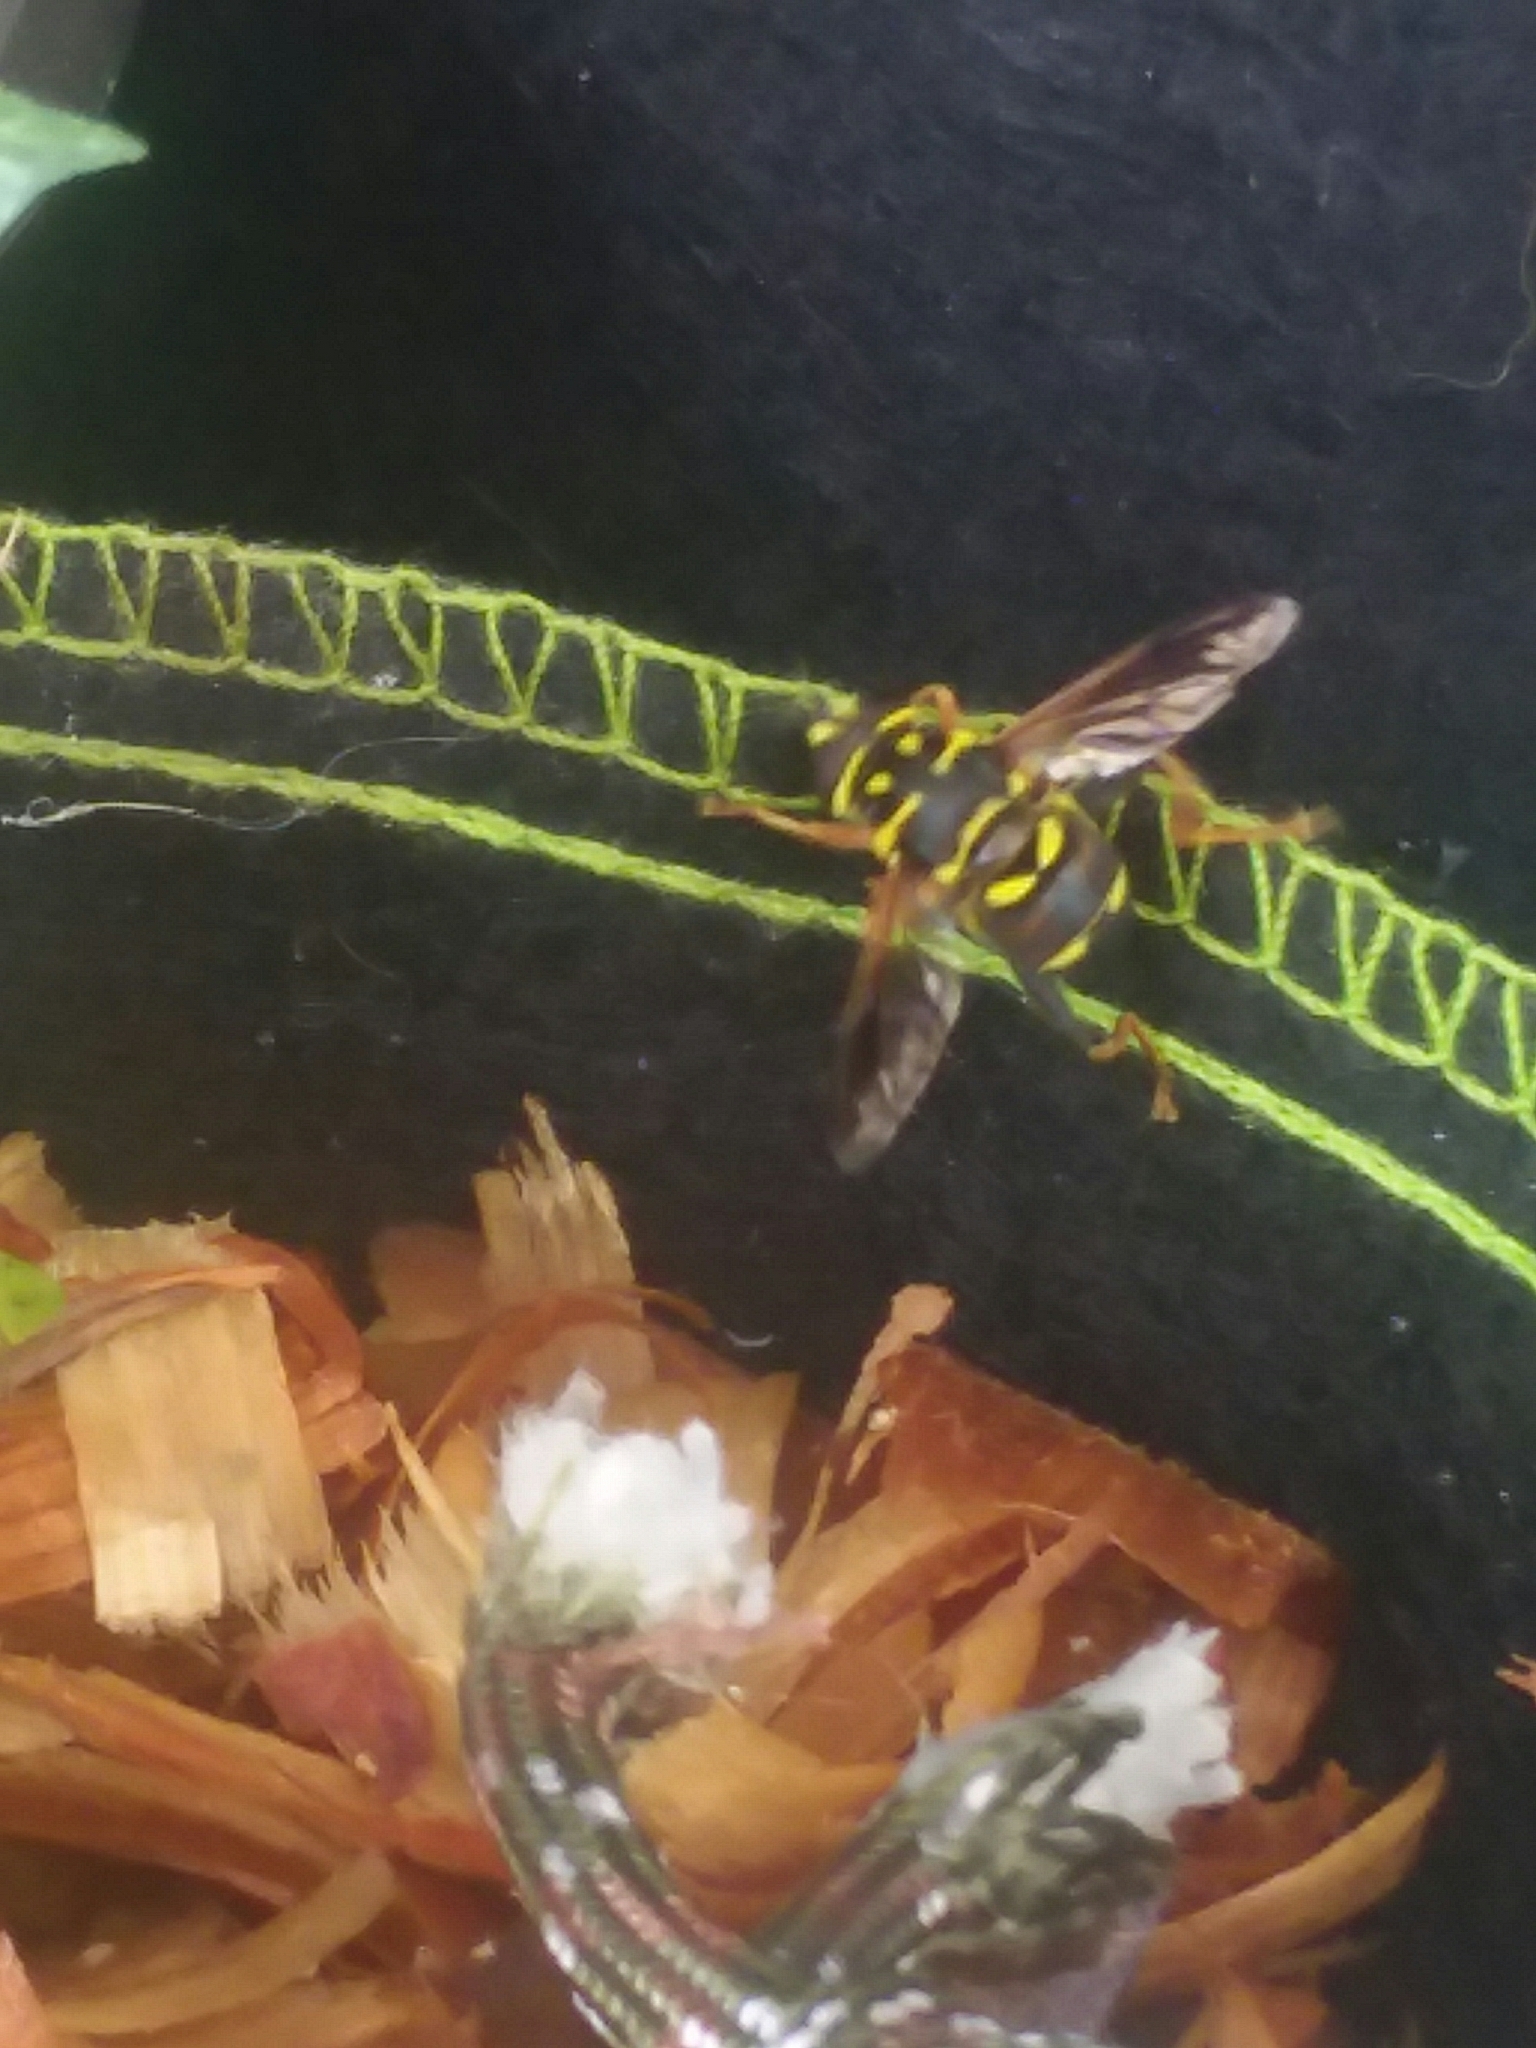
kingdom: Animalia
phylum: Arthropoda
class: Insecta
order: Diptera
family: Syrphidae
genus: Meromacrus
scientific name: Meromacrus acutus
